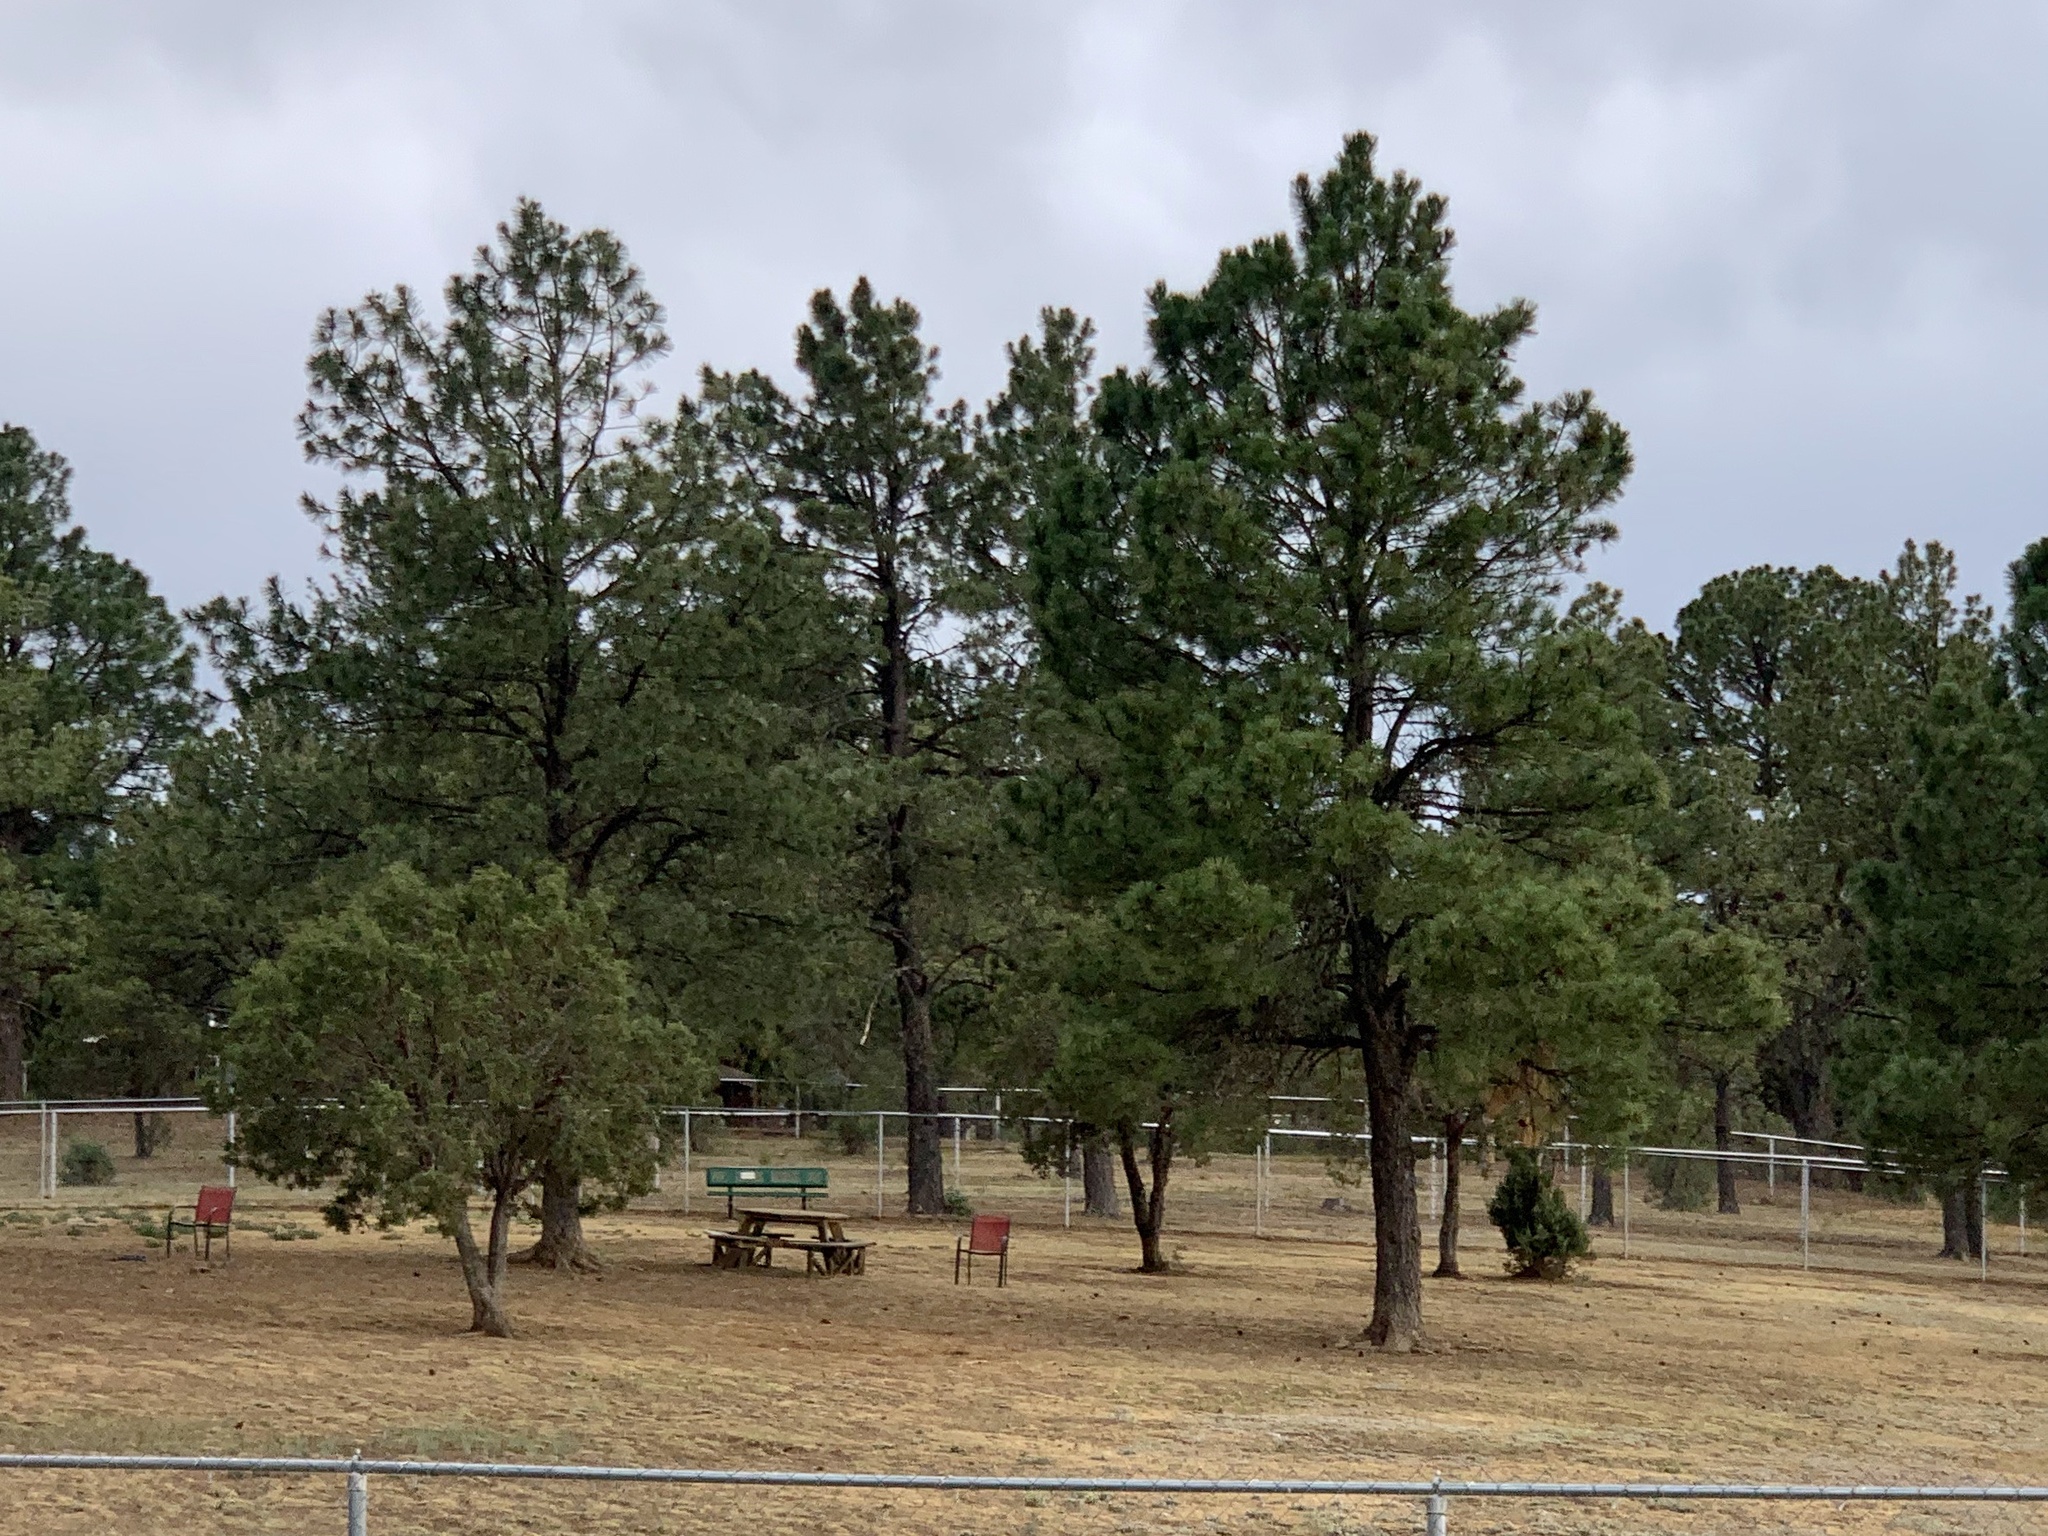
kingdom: Plantae
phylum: Tracheophyta
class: Pinopsida
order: Pinales
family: Pinaceae
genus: Pinus
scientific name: Pinus ponderosa
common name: Western yellow-pine
